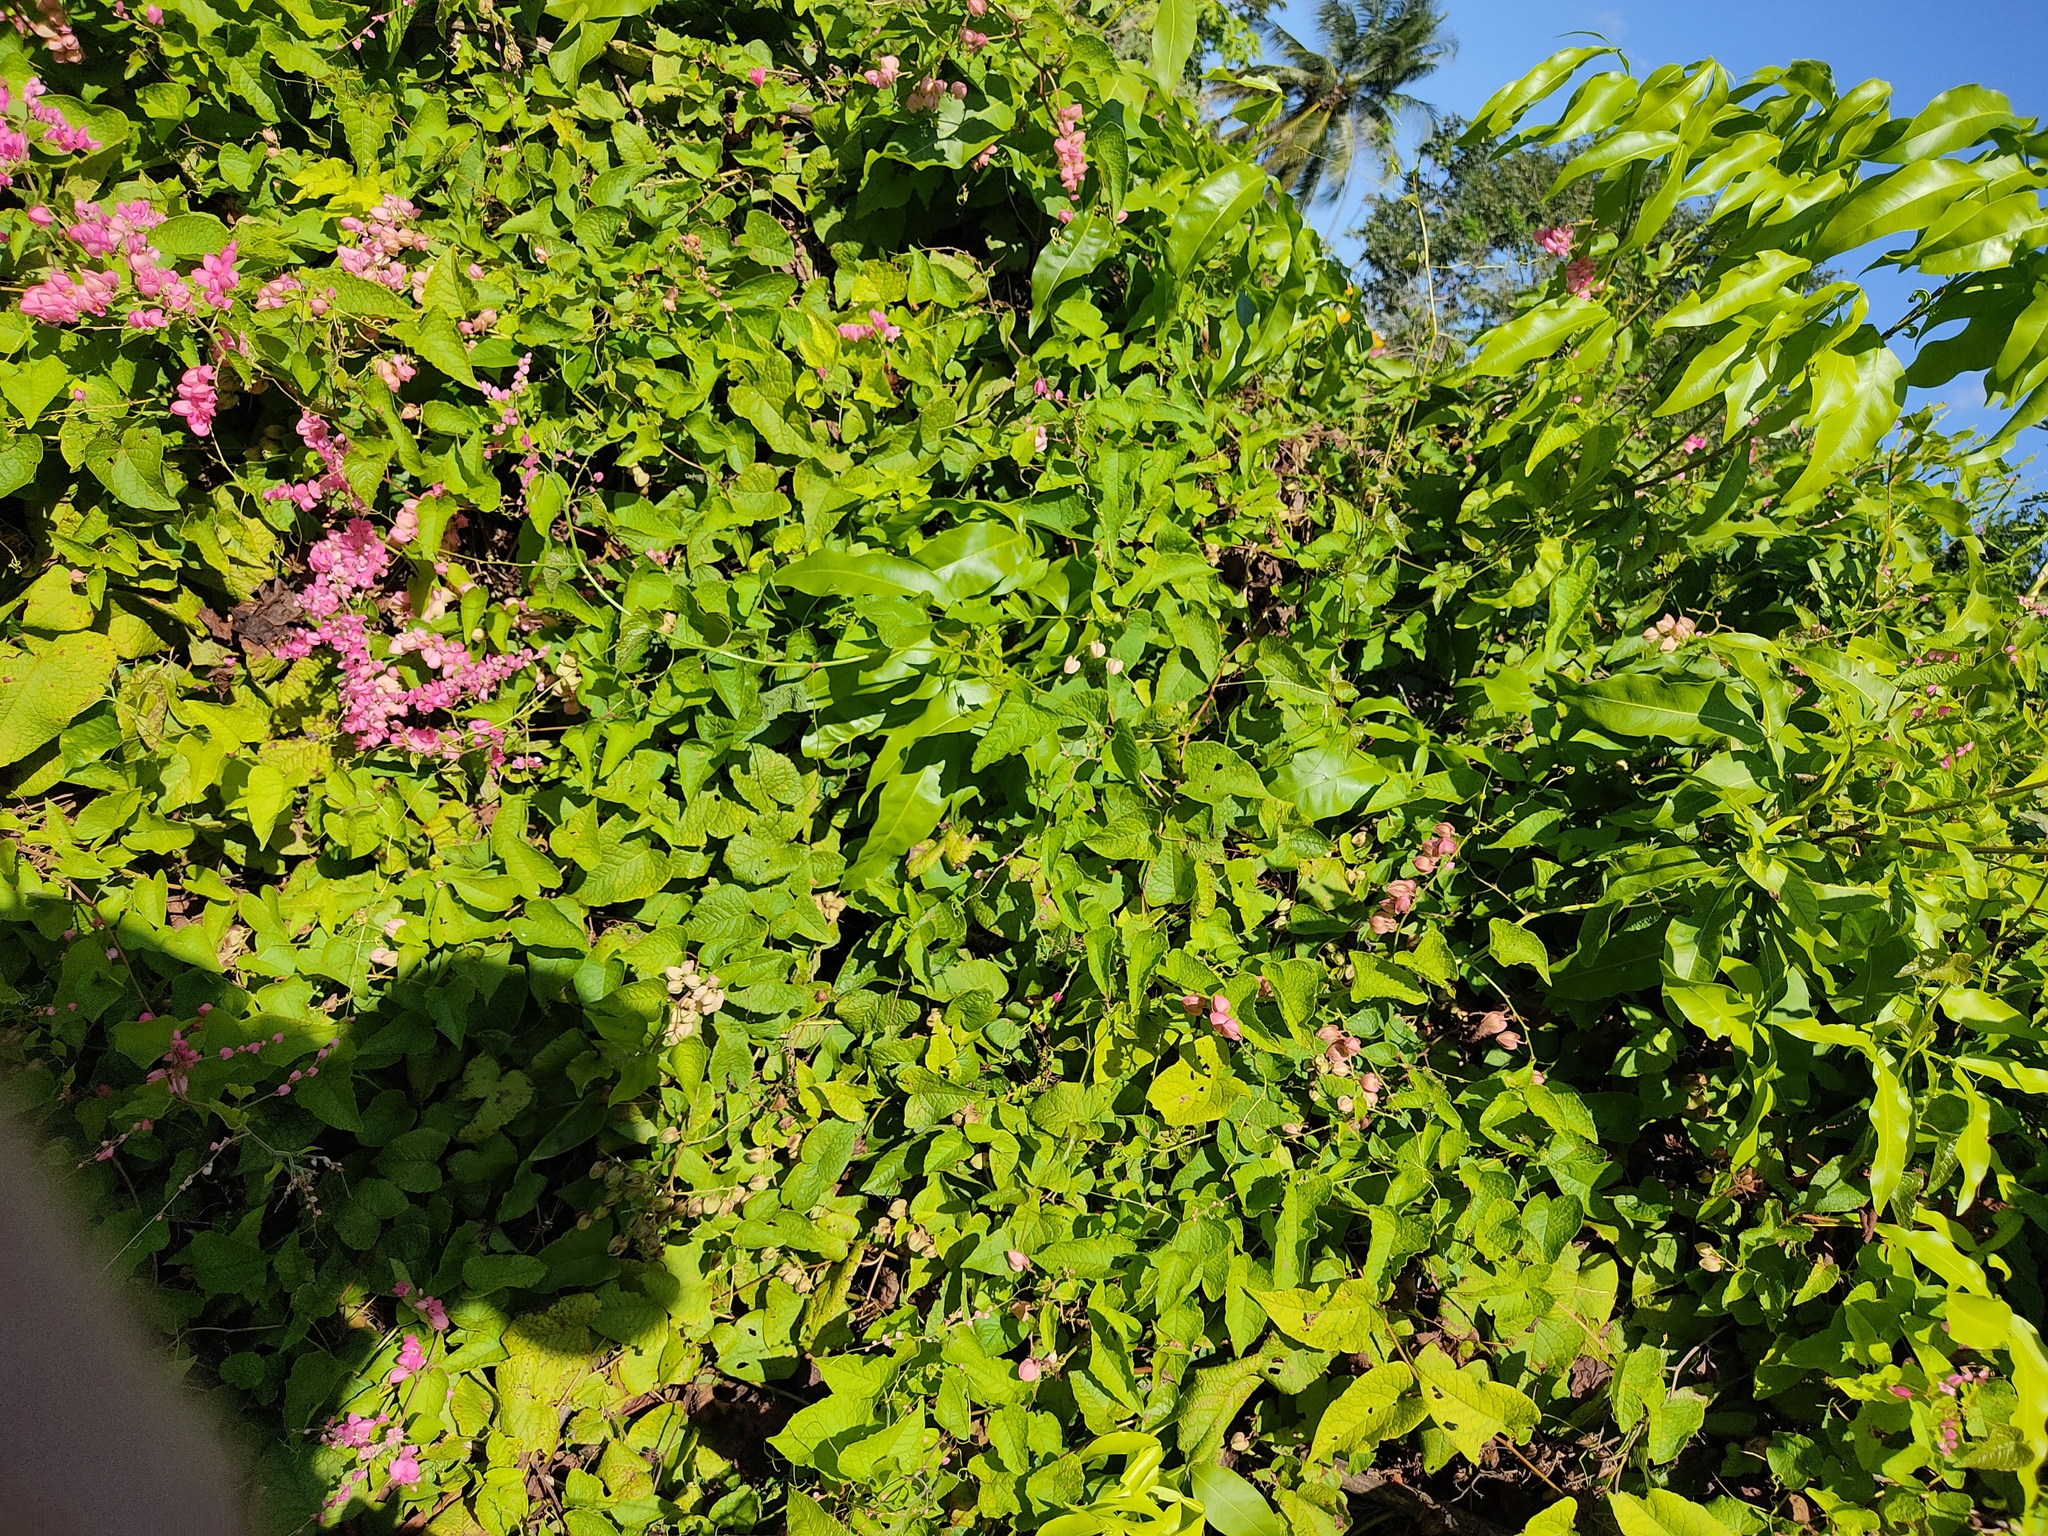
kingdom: Plantae
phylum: Tracheophyta
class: Magnoliopsida
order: Caryophyllales
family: Polygonaceae
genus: Antigonon
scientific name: Antigonon leptopus
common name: Coral vine
